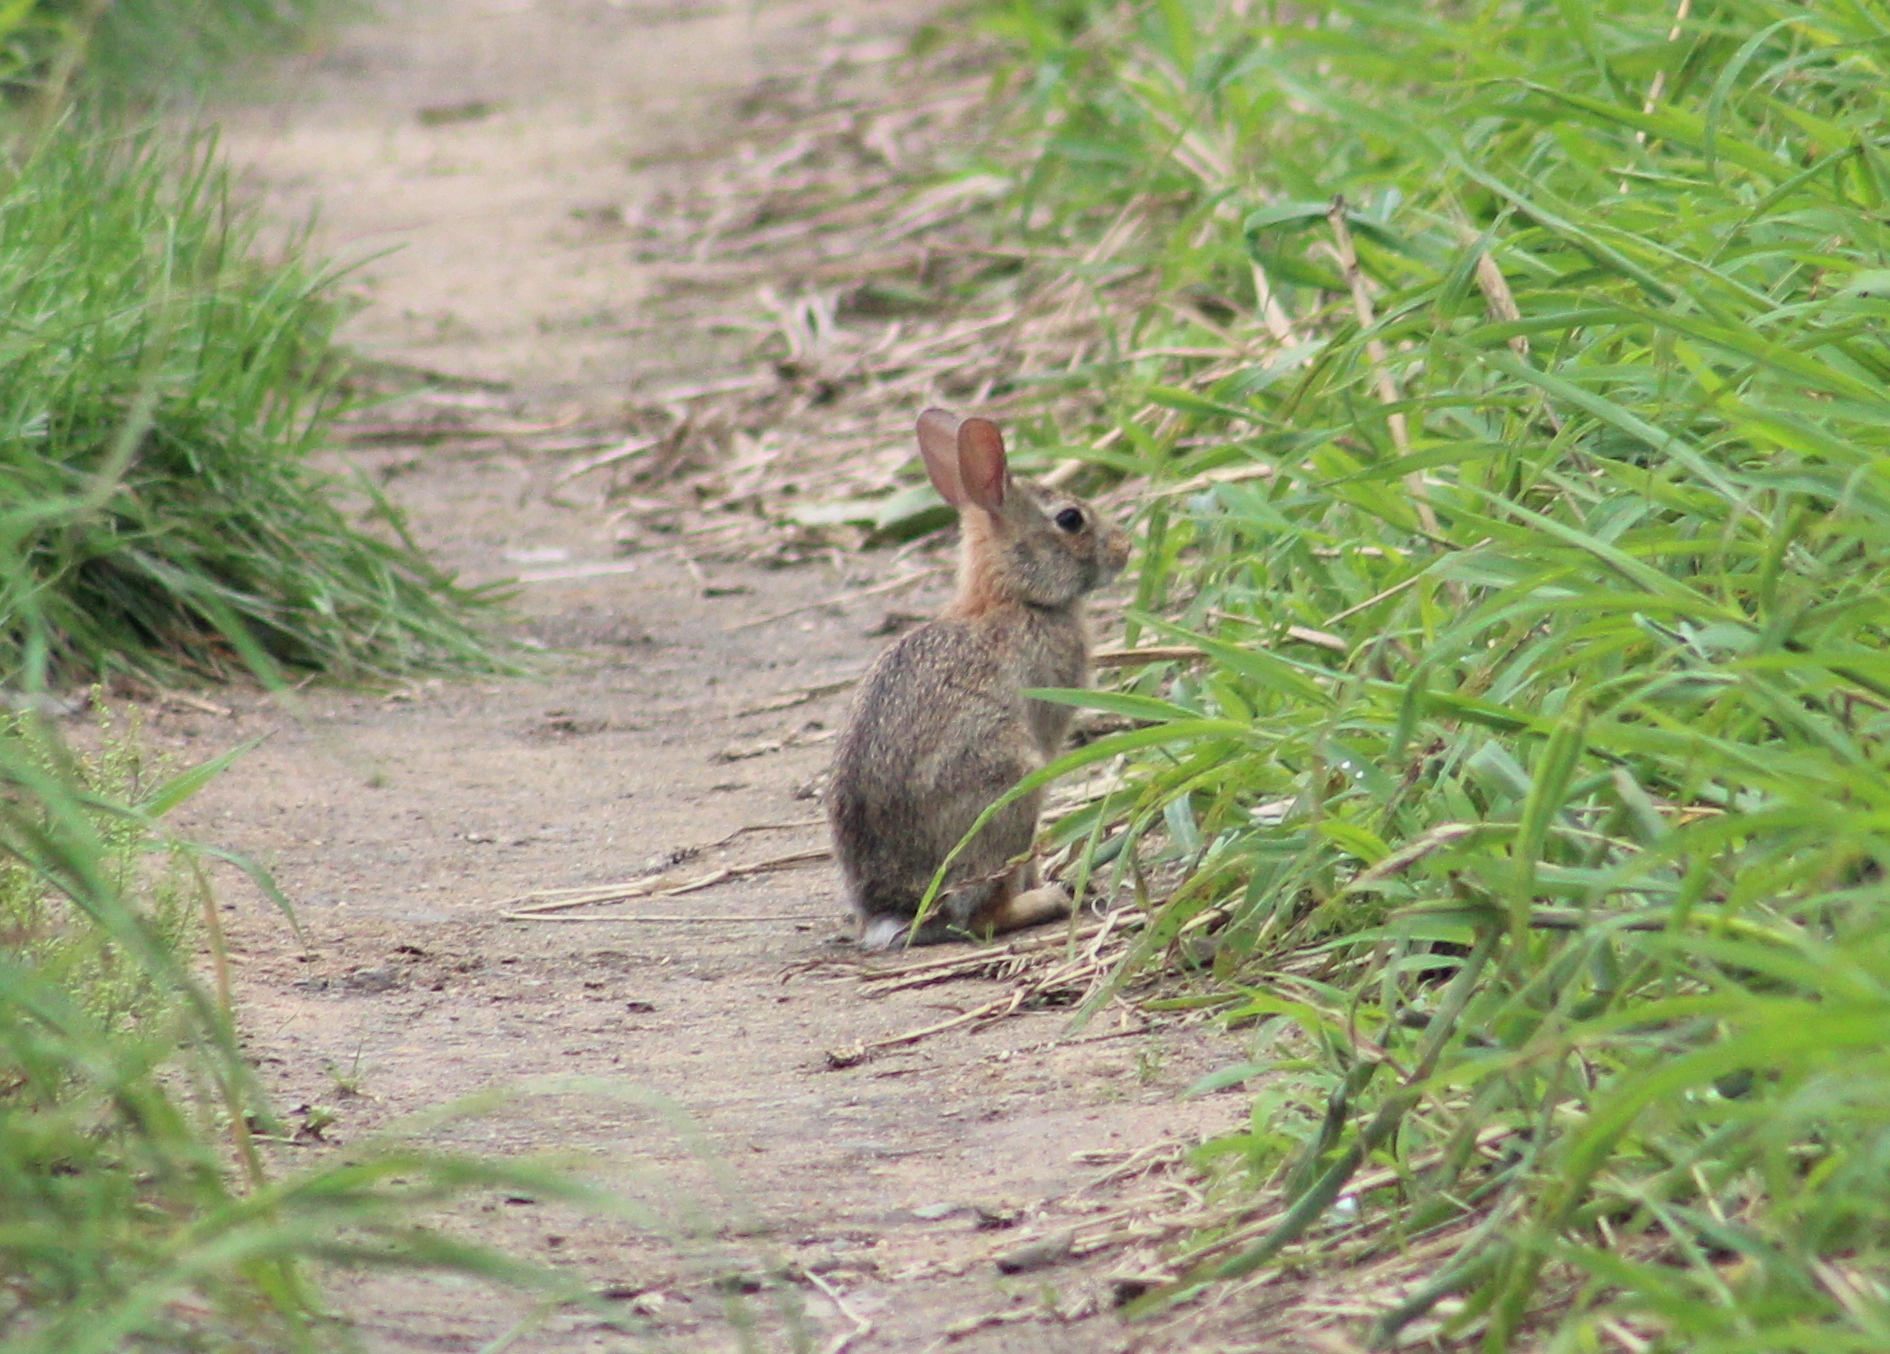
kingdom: Animalia
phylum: Chordata
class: Mammalia
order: Lagomorpha
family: Leporidae
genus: Sylvilagus
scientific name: Sylvilagus floridanus
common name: Eastern cottontail
